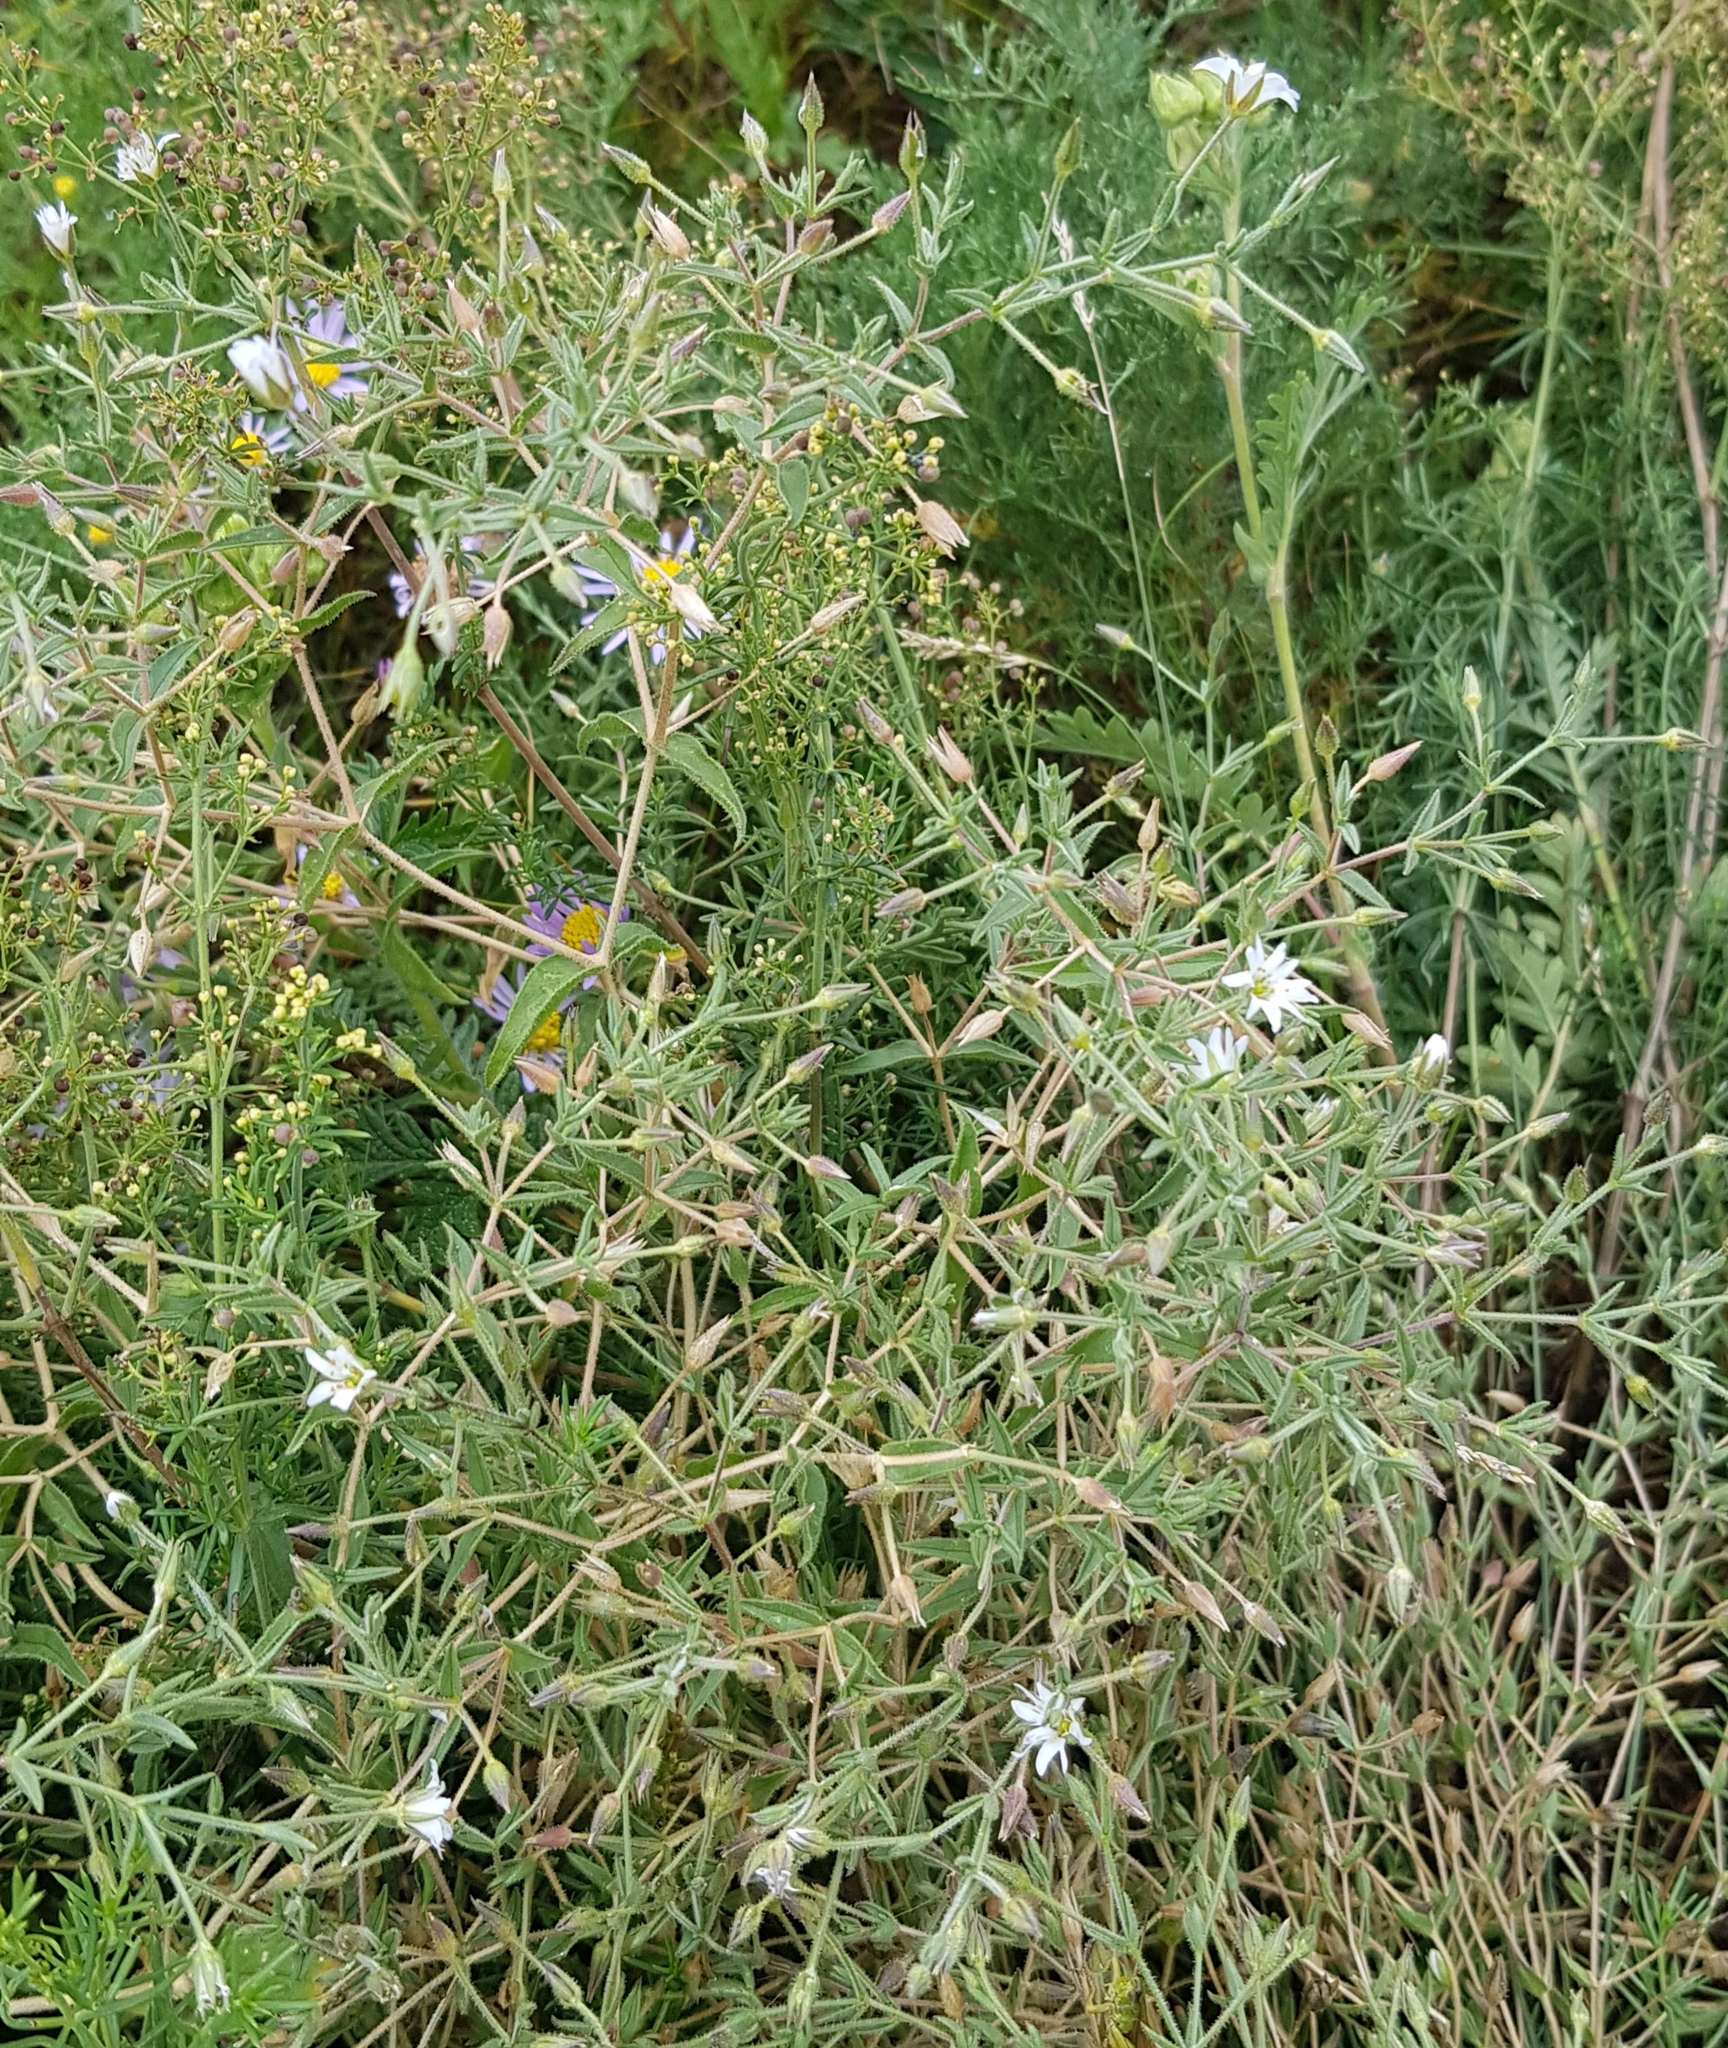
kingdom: Plantae
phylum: Tracheophyta
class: Magnoliopsida
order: Caryophyllales
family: Caryophyllaceae
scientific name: Caryophyllaceae
